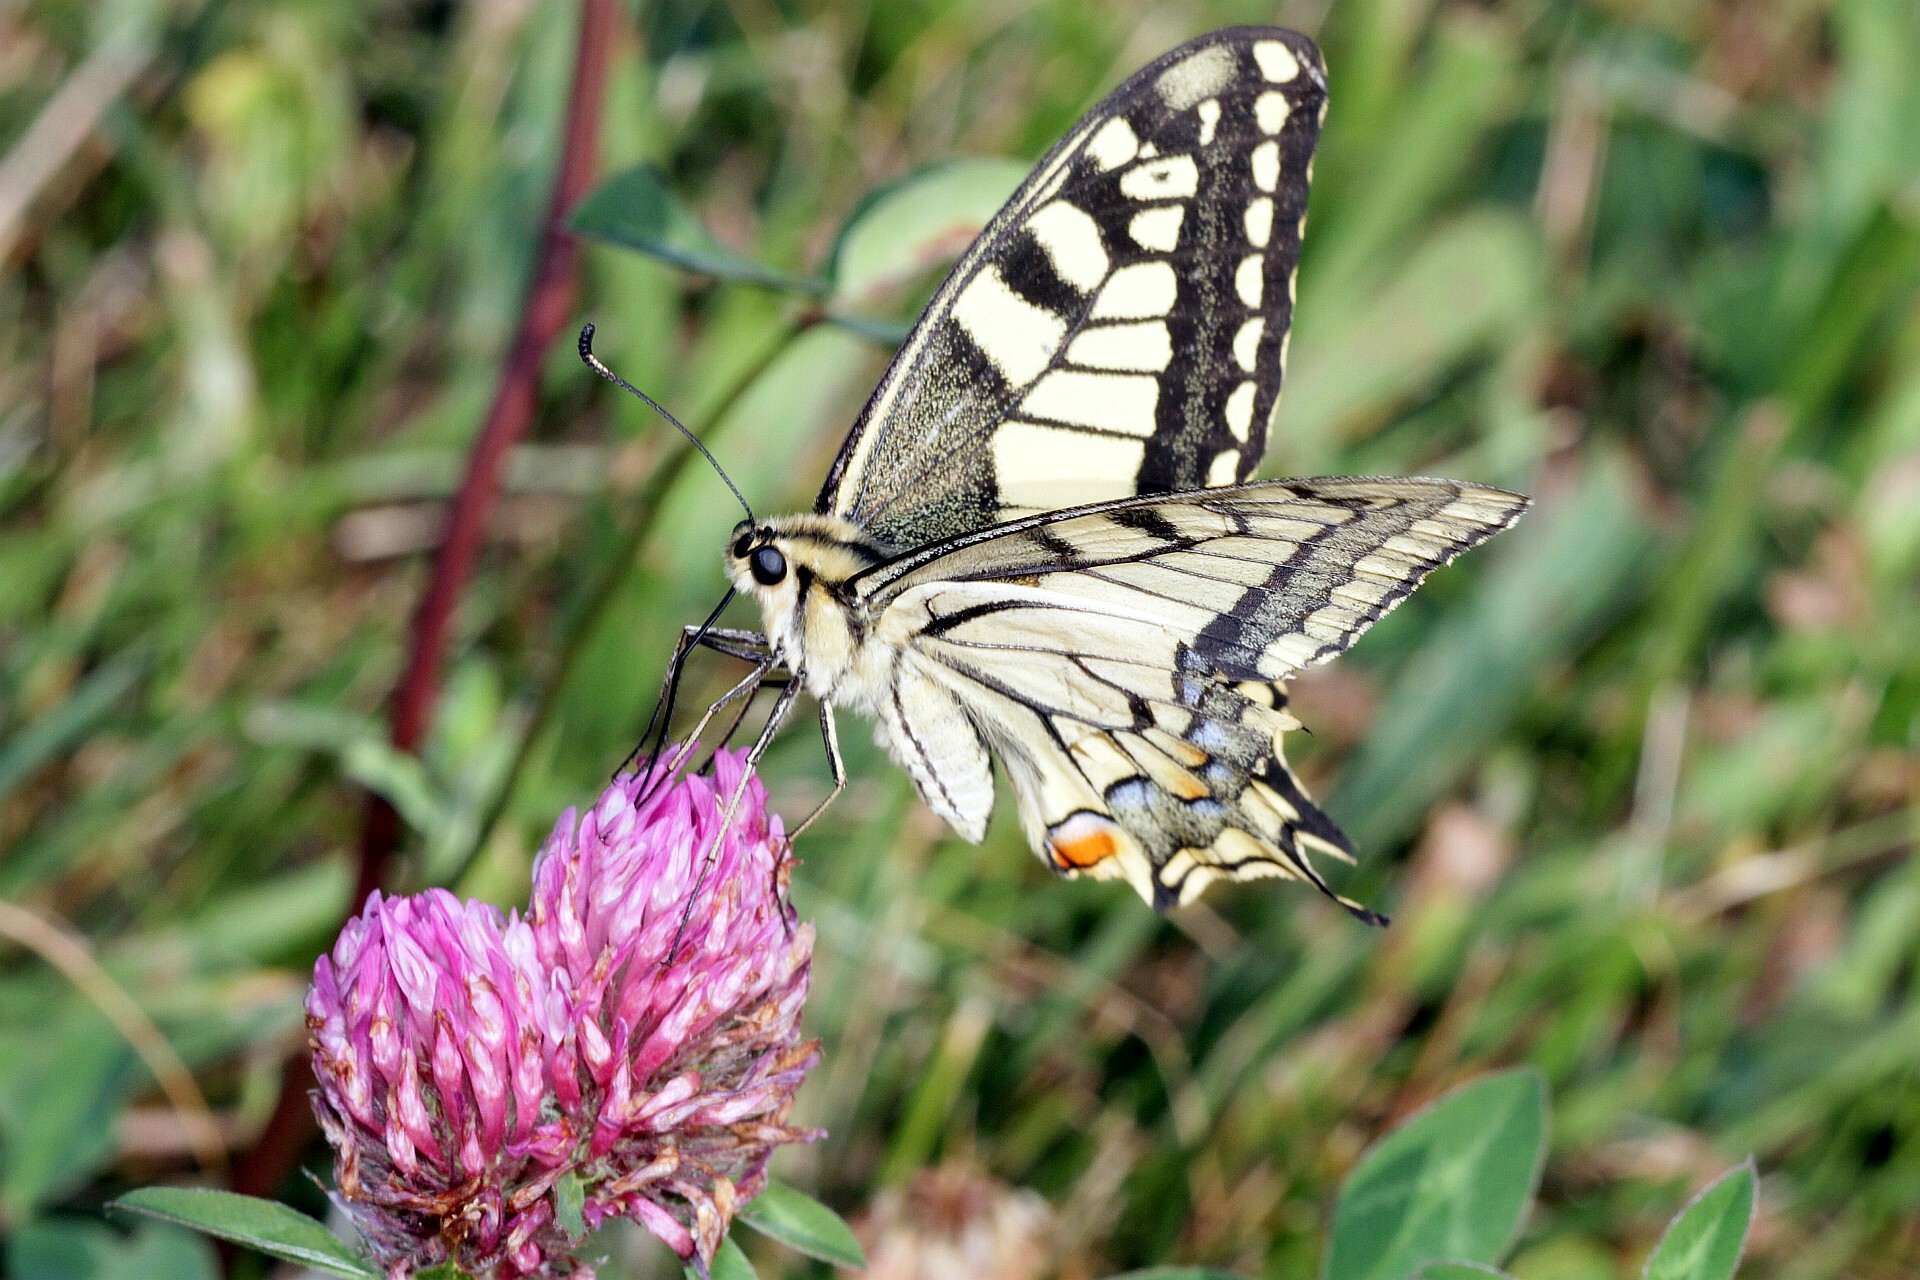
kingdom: Animalia
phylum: Arthropoda
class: Insecta
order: Lepidoptera
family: Papilionidae
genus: Papilio
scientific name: Papilio machaon
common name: Swallowtail
